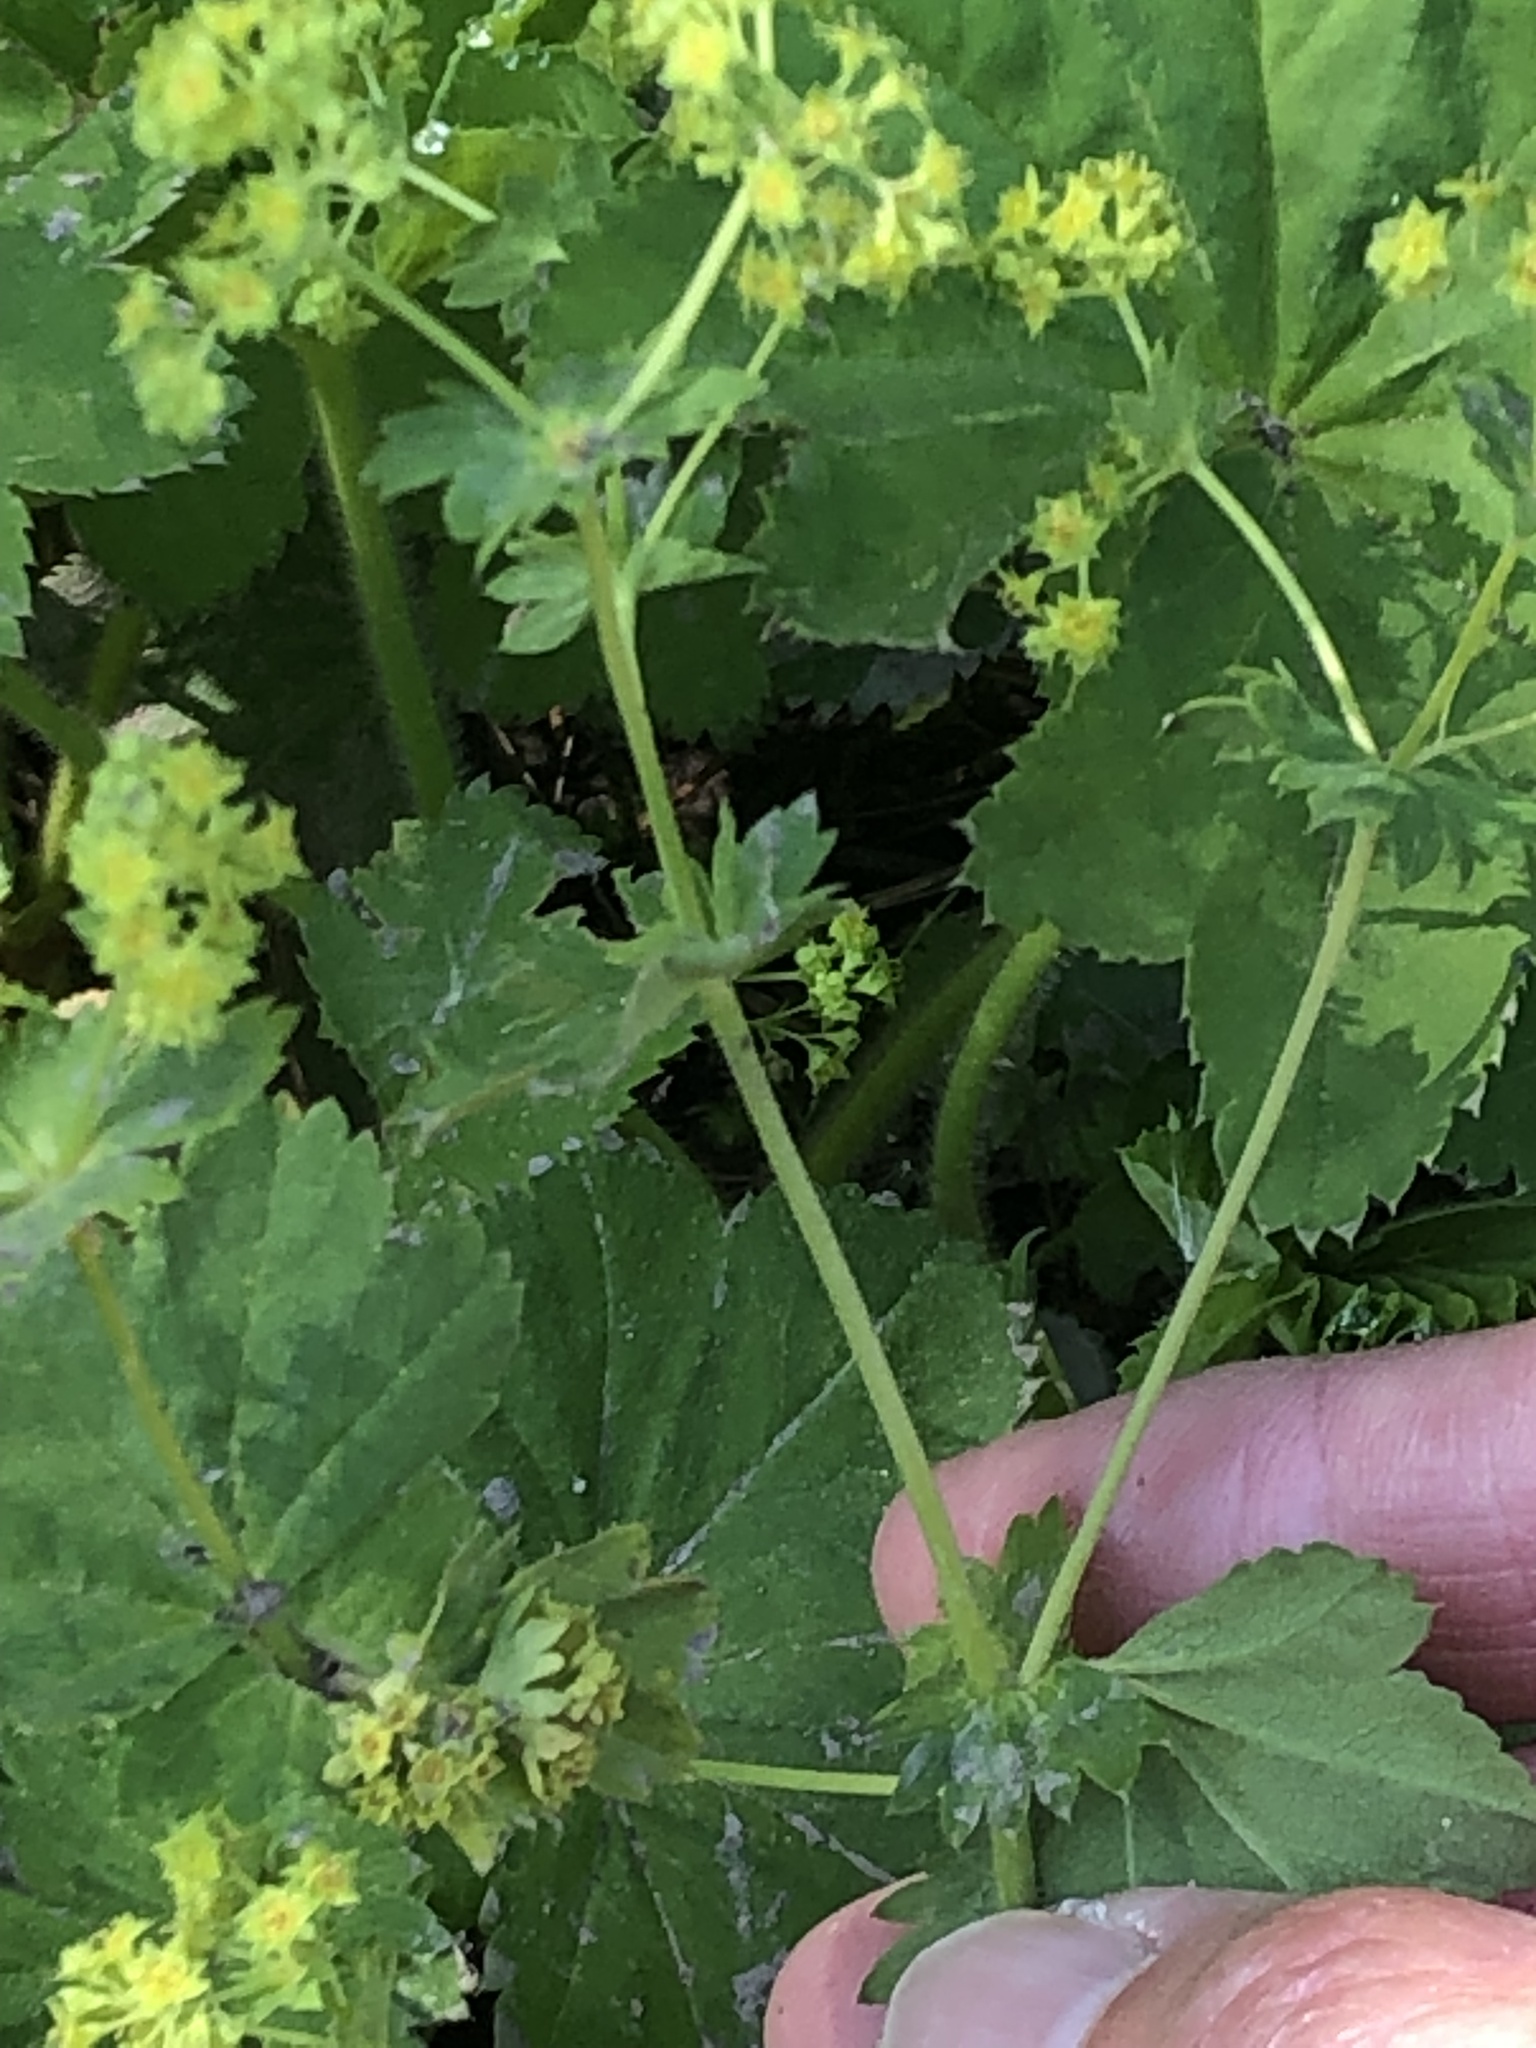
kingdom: Plantae
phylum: Tracheophyta
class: Magnoliopsida
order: Rosales
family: Rosaceae
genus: Alchemilla
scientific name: Alchemilla xanthochlora
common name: Intermediate lady's-mantle
